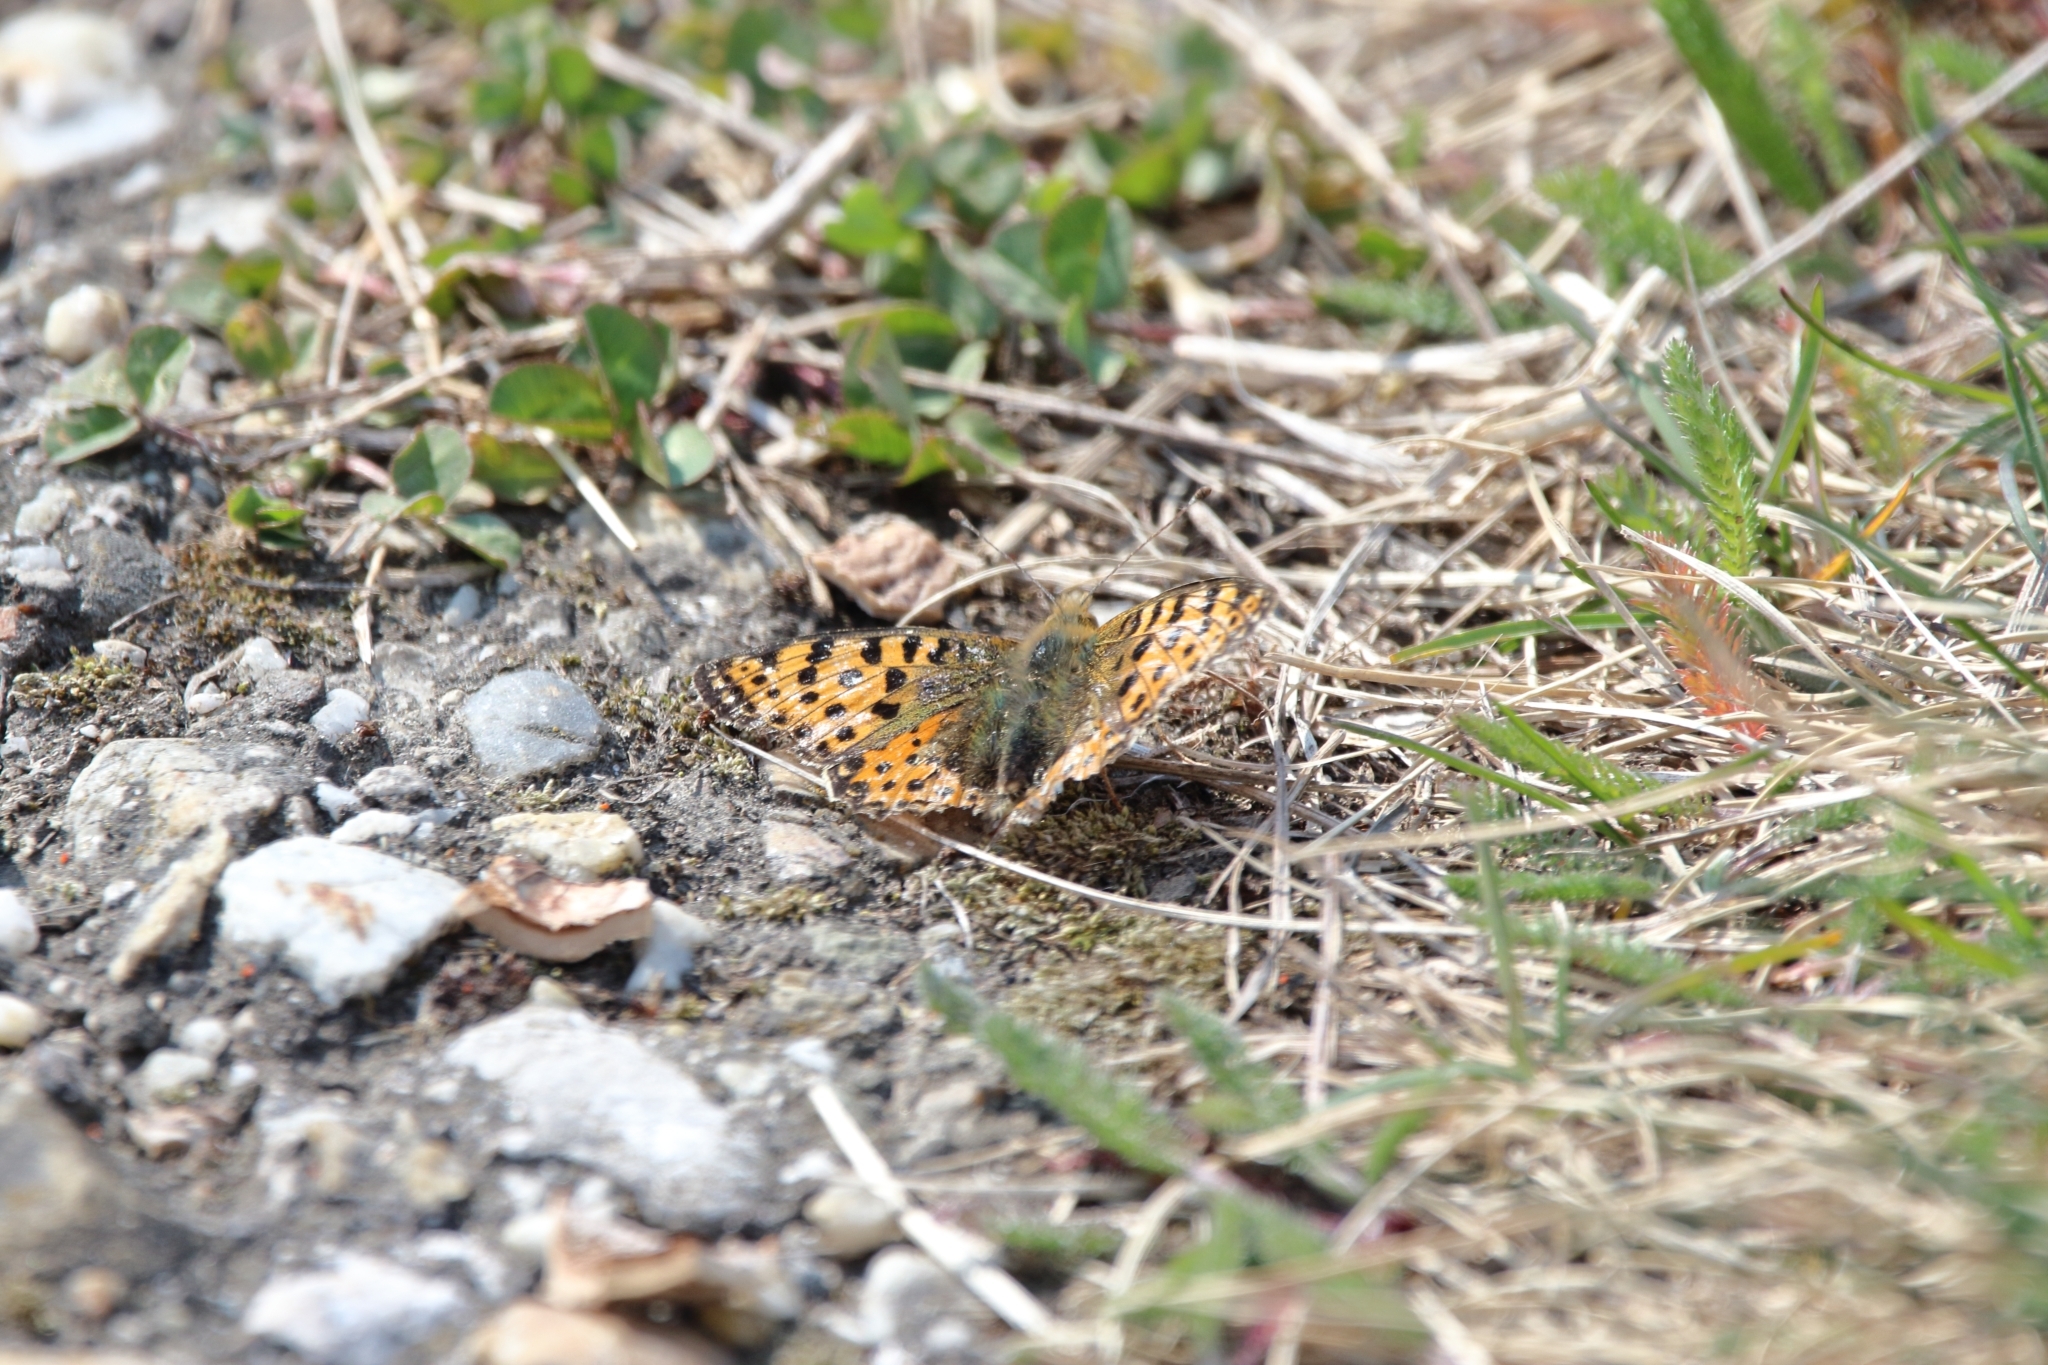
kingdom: Animalia
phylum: Arthropoda
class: Insecta
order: Lepidoptera
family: Nymphalidae
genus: Issoria
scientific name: Issoria lathonia
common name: Queen of spain fritillary
